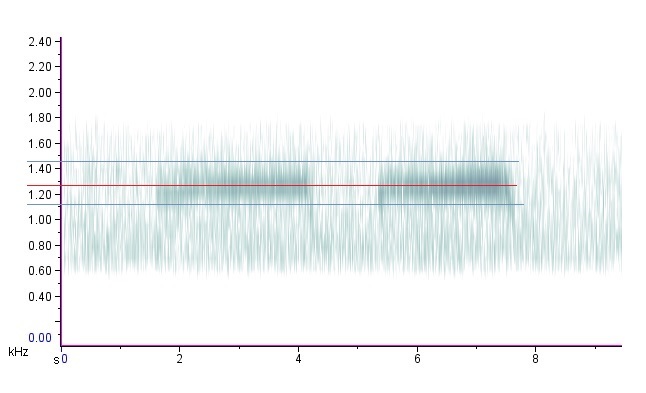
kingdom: Animalia
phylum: Arthropoda
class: Insecta
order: Hemiptera
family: Cicadidae
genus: Magicicada
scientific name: Magicicada septendecim
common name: Periodical cicada
